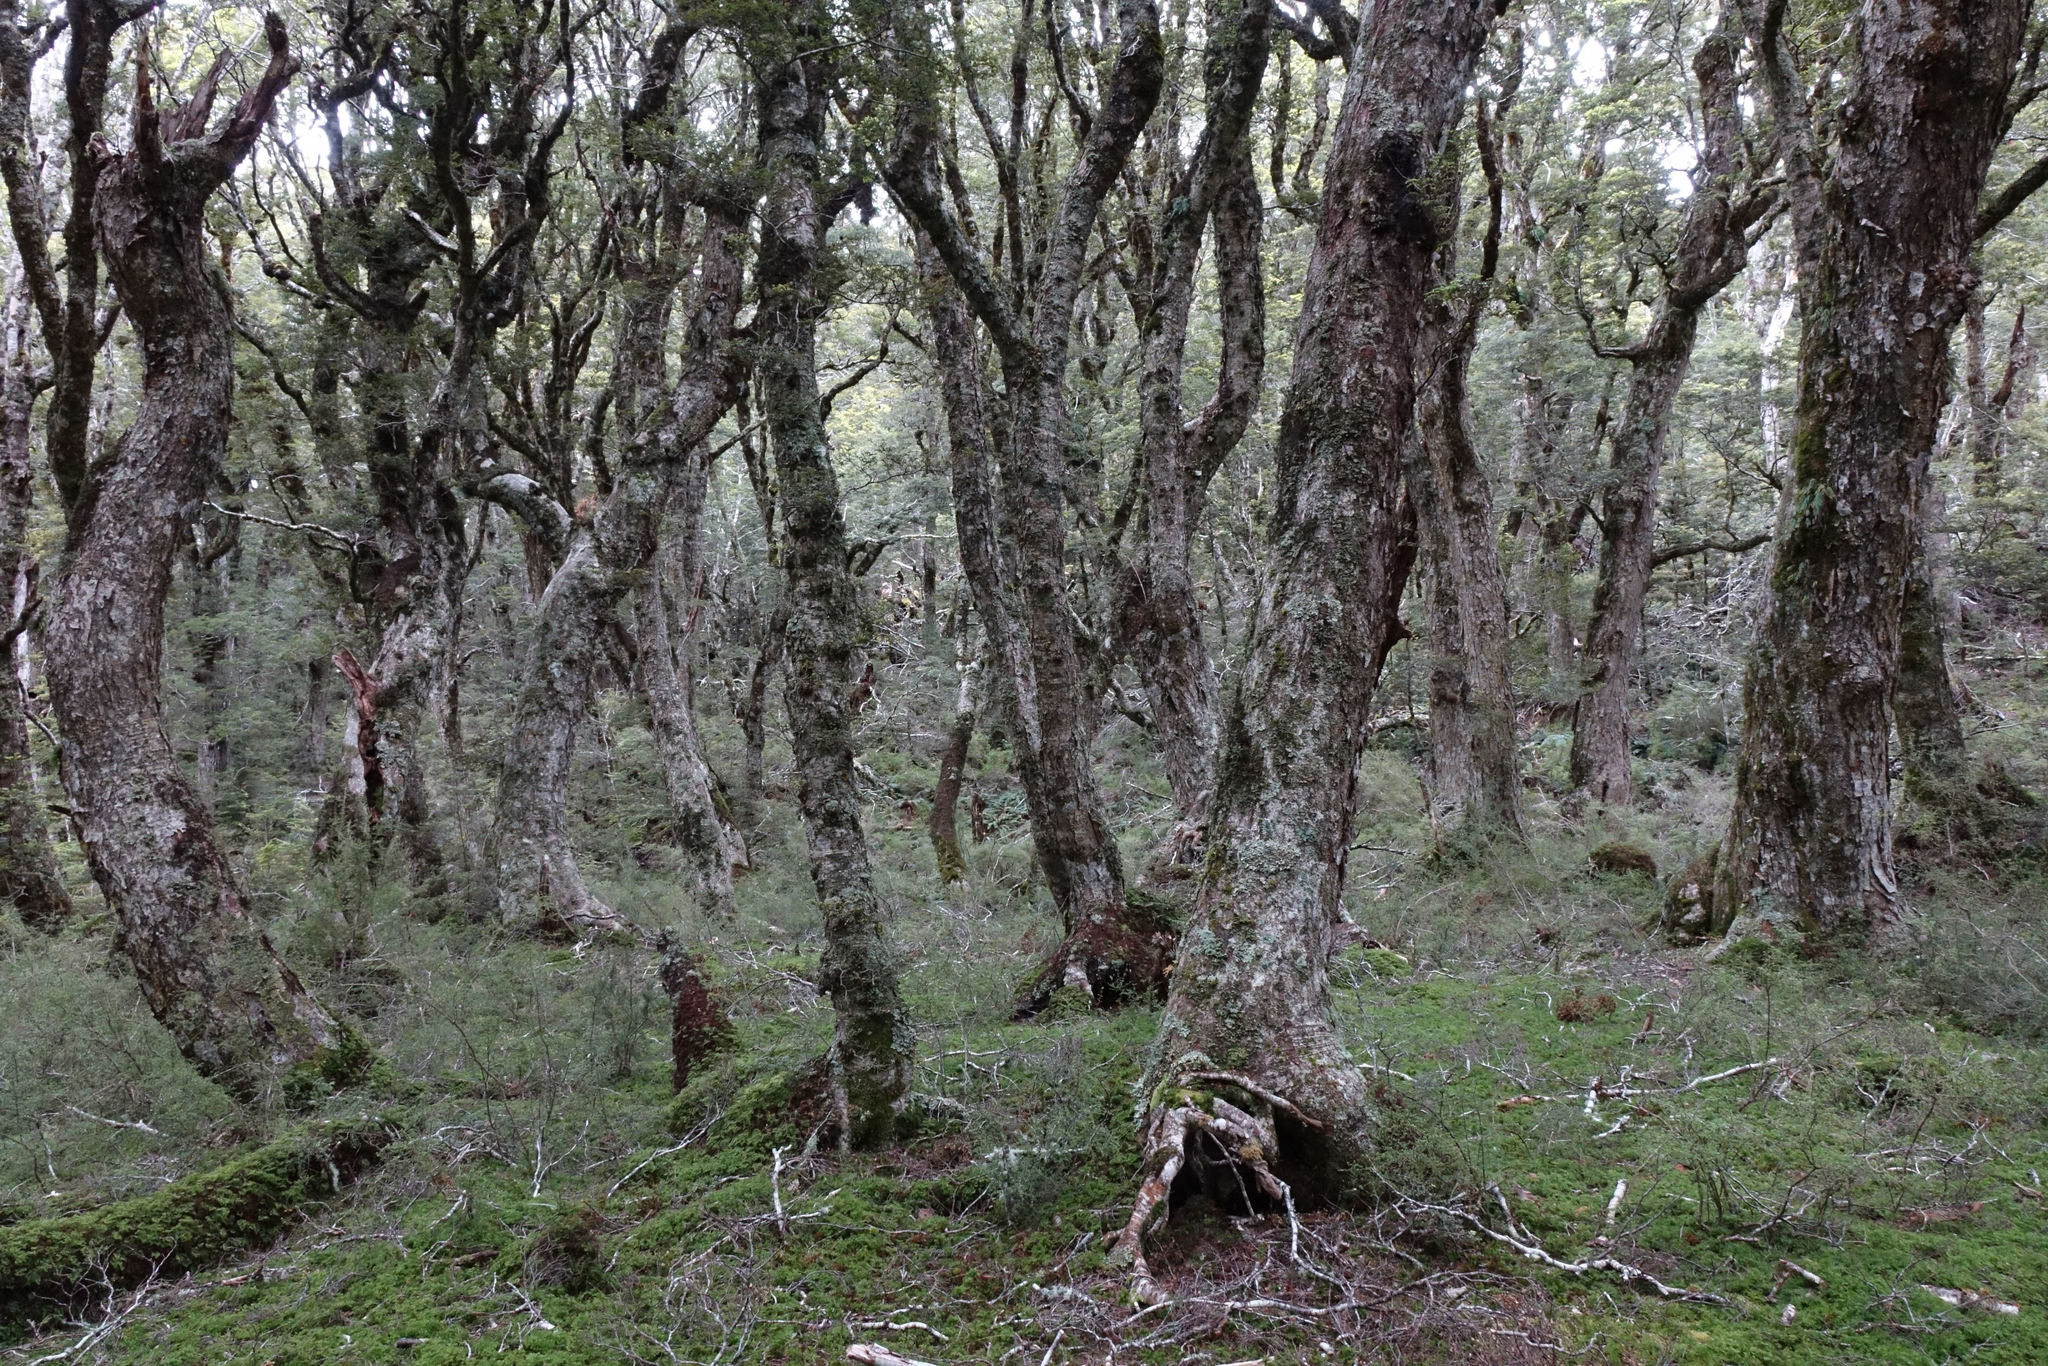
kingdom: Plantae
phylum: Tracheophyta
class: Magnoliopsida
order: Fagales
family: Nothofagaceae
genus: Nothofagus
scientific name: Nothofagus menziesii
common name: Silver beech
